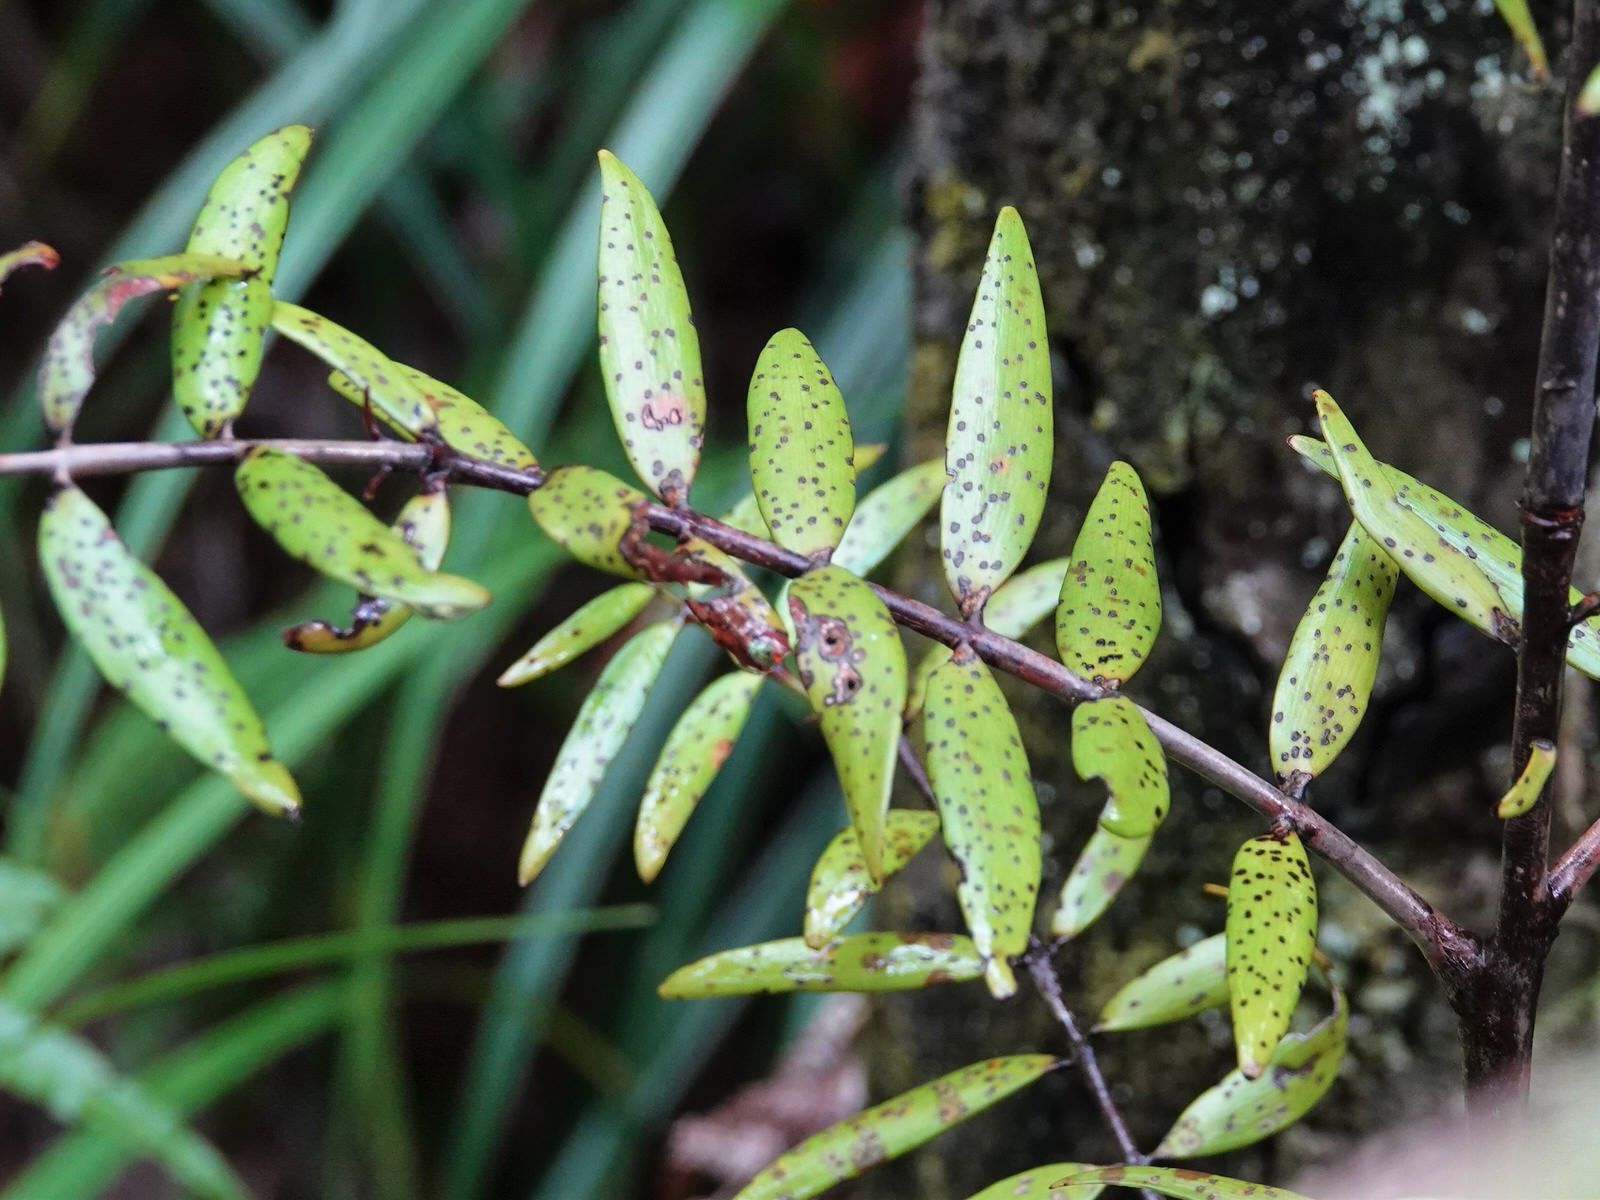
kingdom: Plantae
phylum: Tracheophyta
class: Pinopsida
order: Pinales
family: Araucariaceae
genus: Agathis
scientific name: Agathis australis
